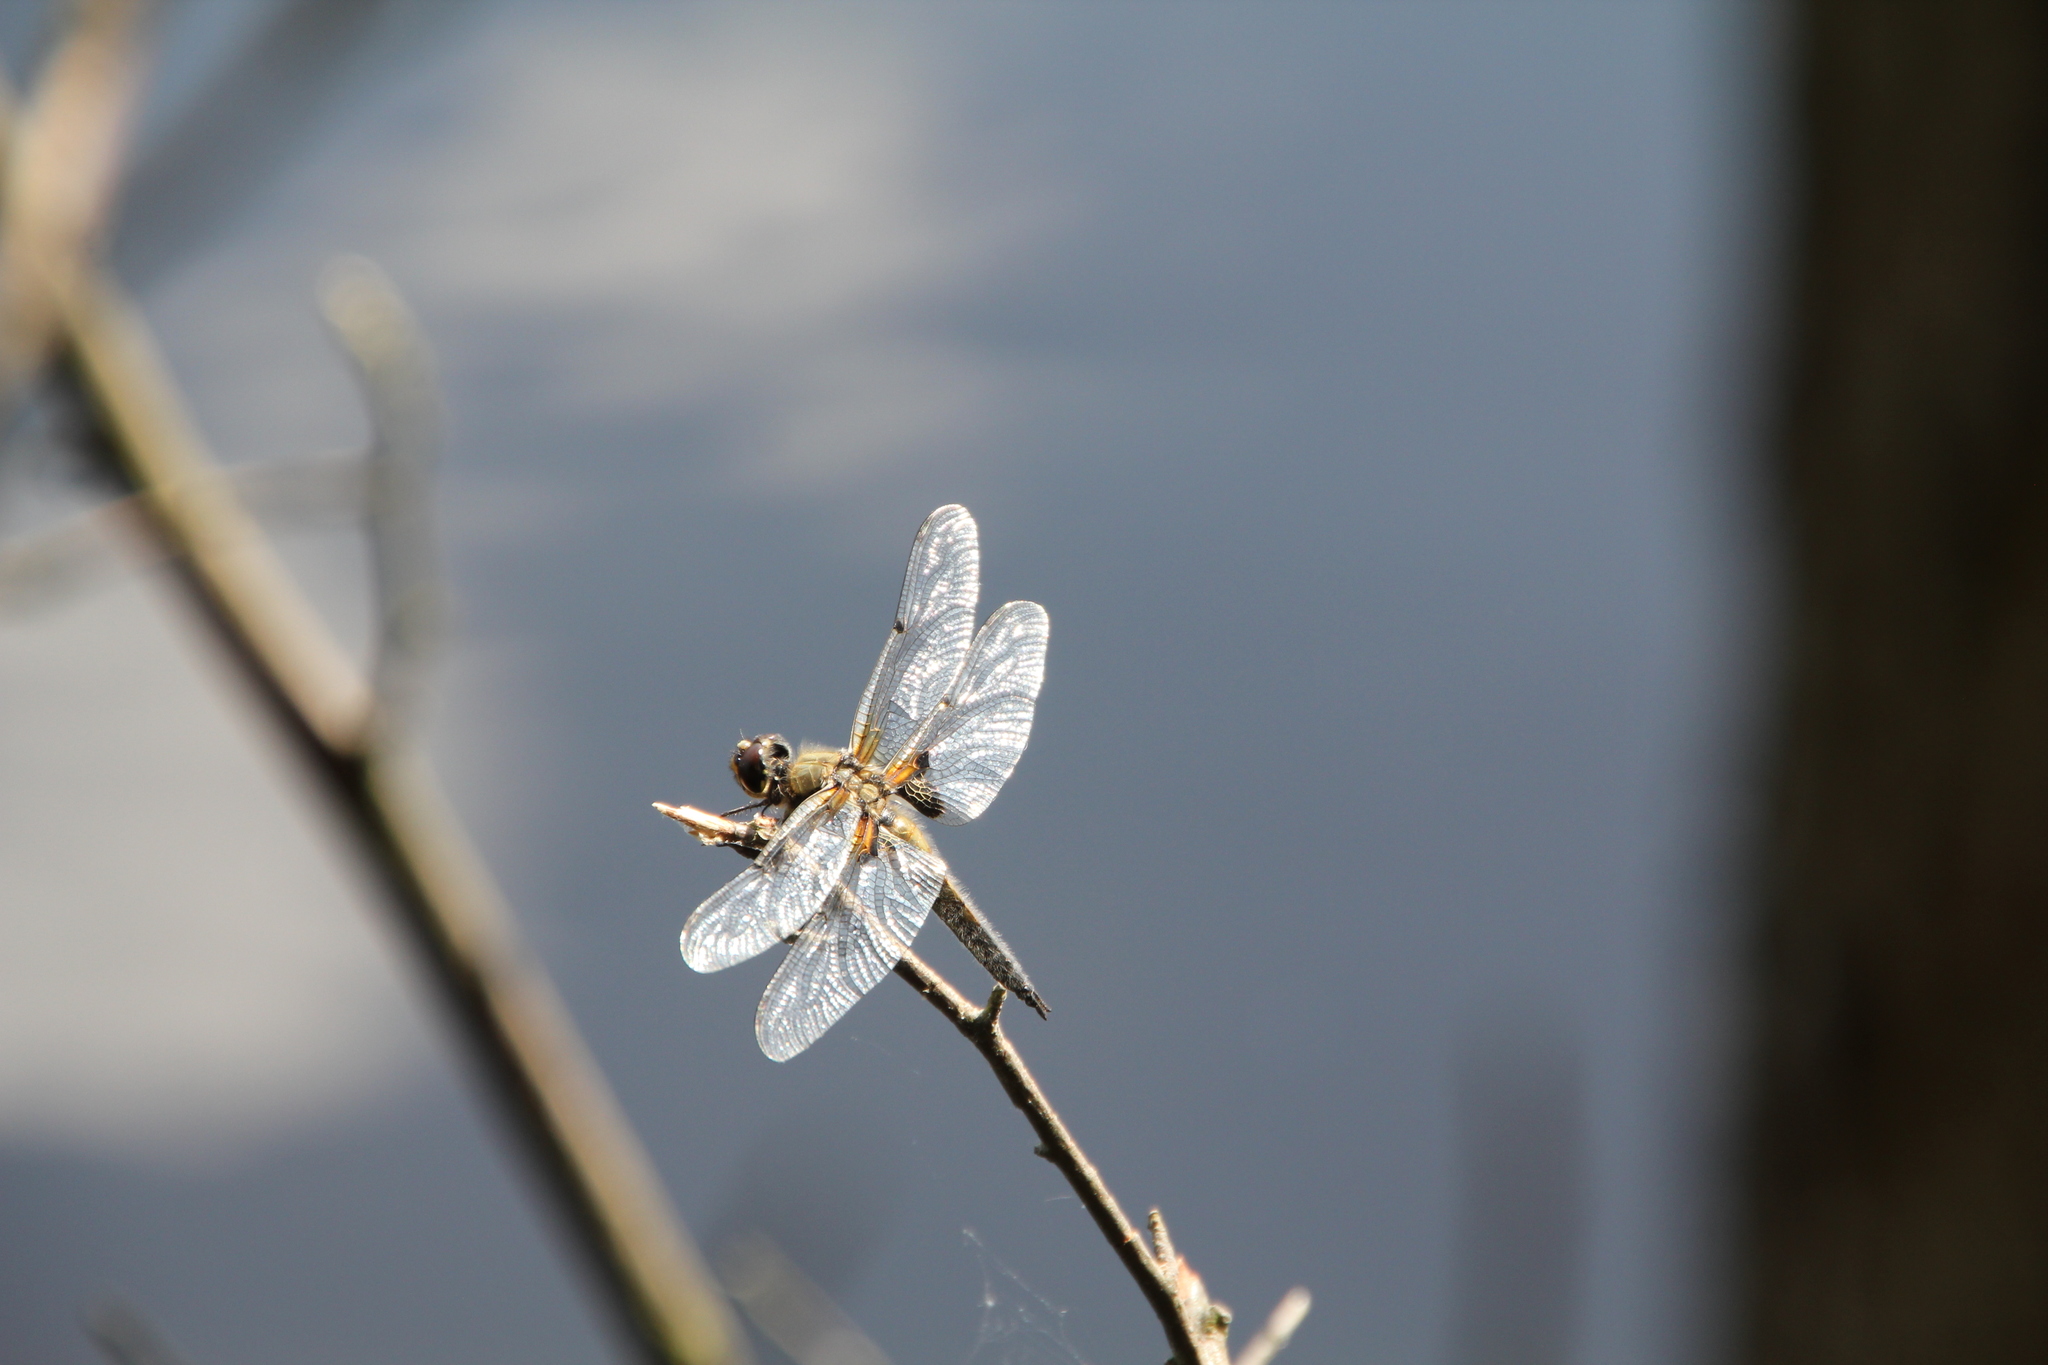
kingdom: Animalia
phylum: Arthropoda
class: Insecta
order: Odonata
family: Libellulidae
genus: Libellula
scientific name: Libellula quadrimaculata
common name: Four-spotted chaser
